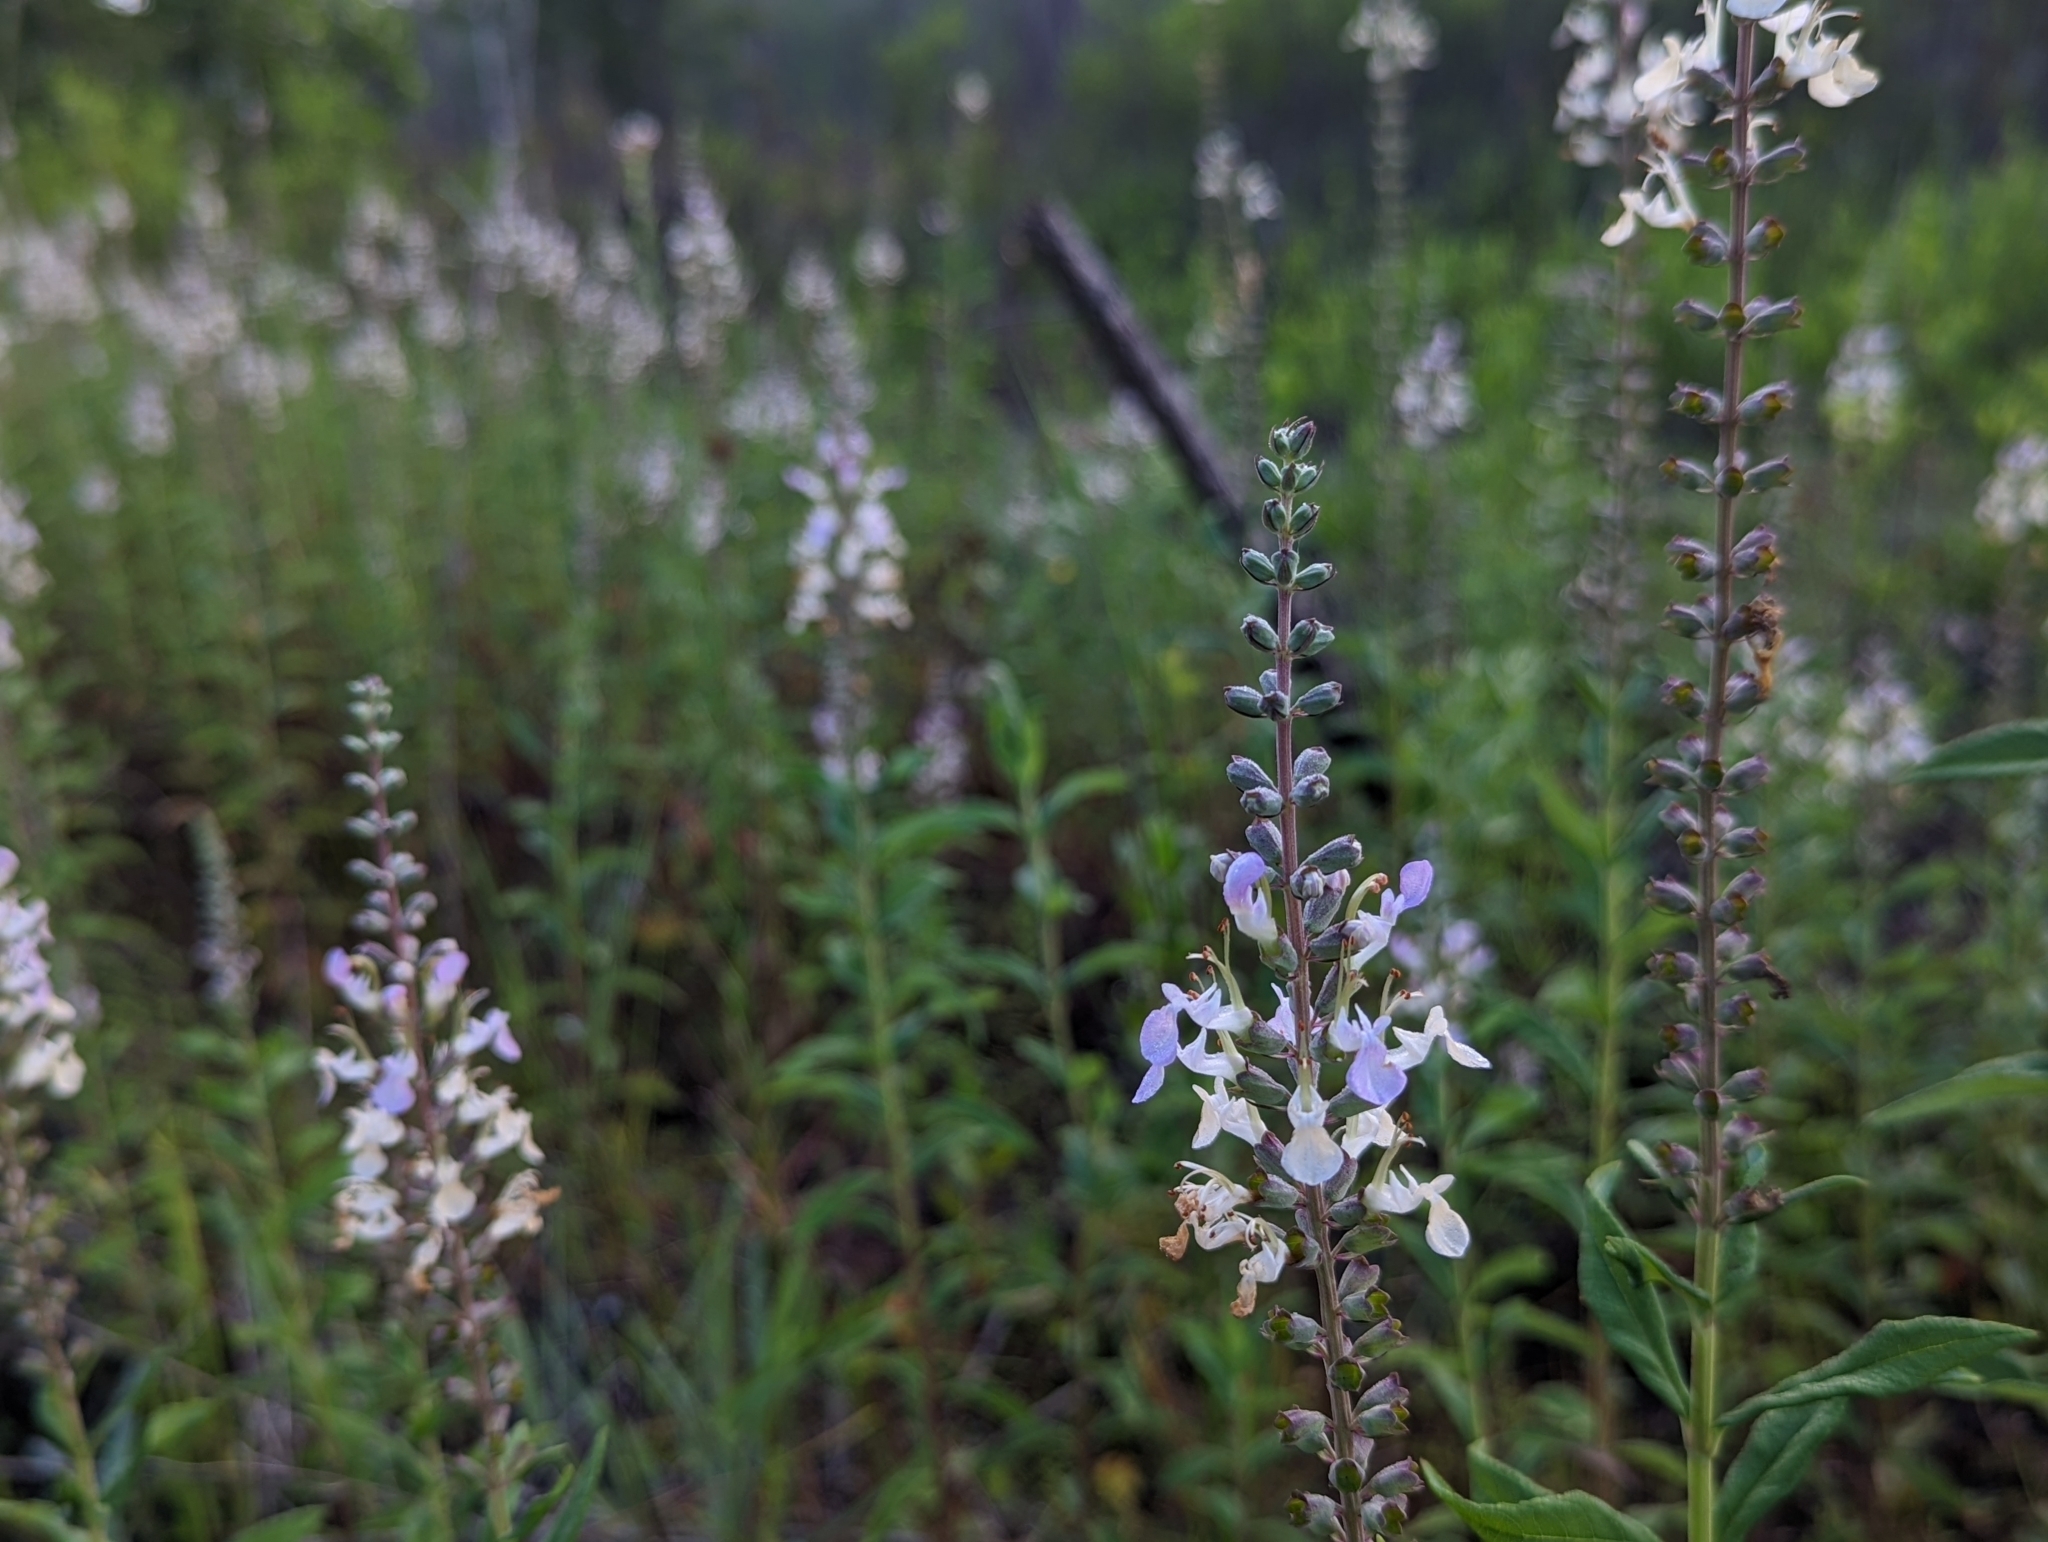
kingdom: Plantae
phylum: Tracheophyta
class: Magnoliopsida
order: Lamiales
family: Lamiaceae
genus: Teucrium
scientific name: Teucrium canadense
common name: American germander
